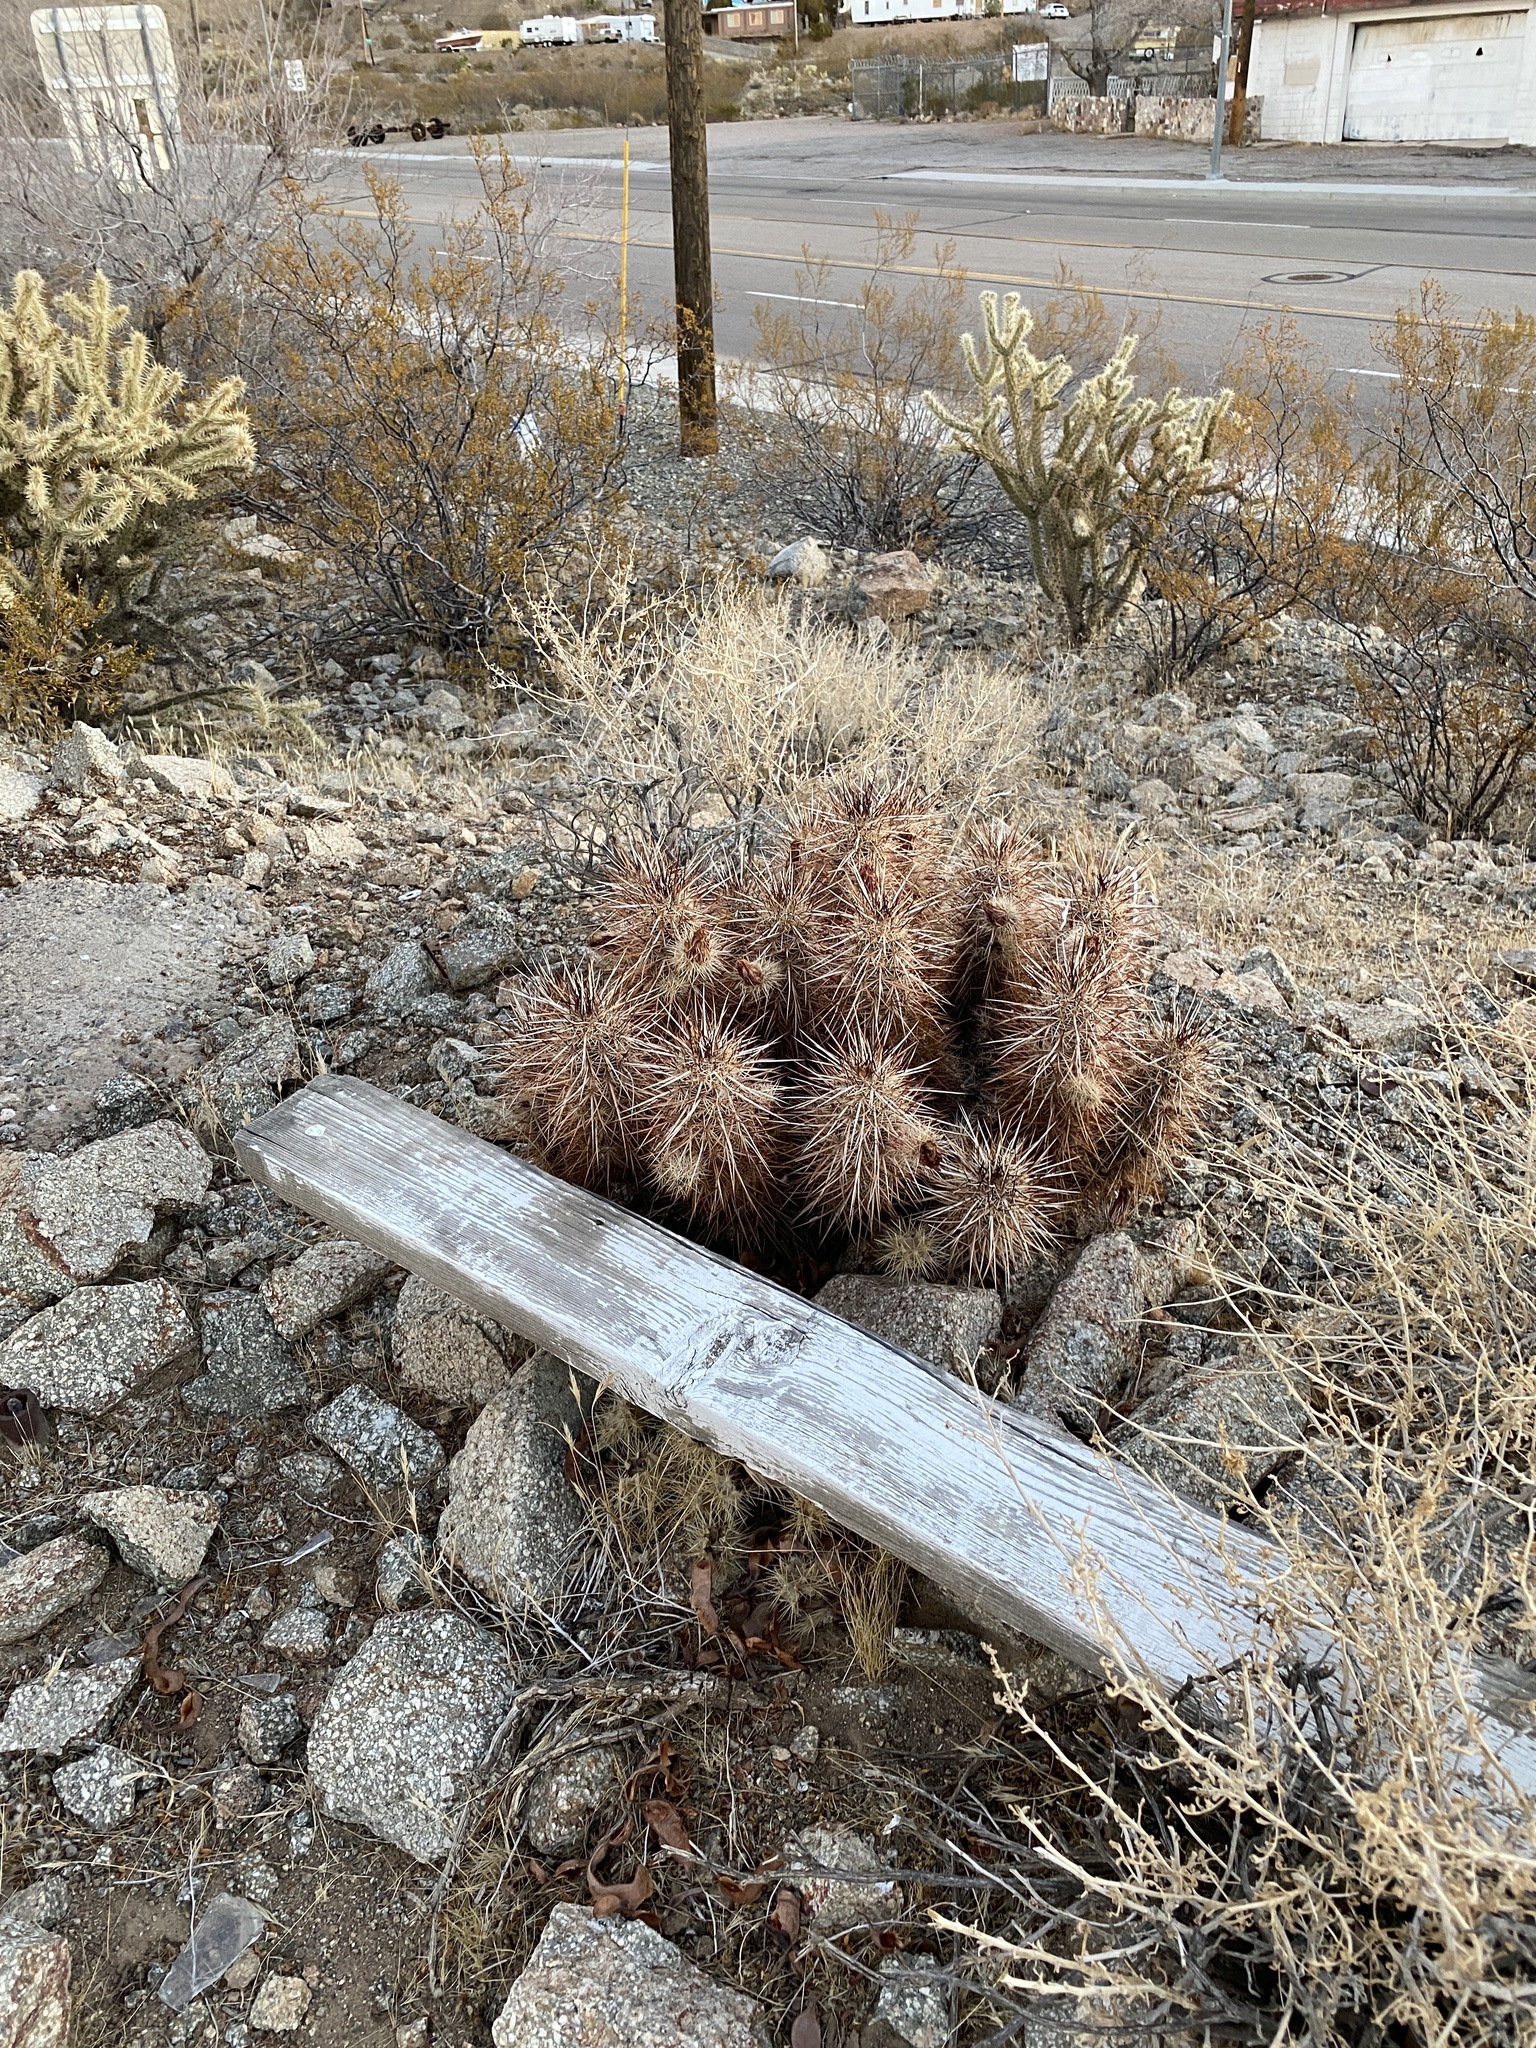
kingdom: Plantae
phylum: Tracheophyta
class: Magnoliopsida
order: Caryophyllales
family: Cactaceae
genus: Echinocereus
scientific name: Echinocereus engelmannii
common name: Engelmann's hedgehog cactus
